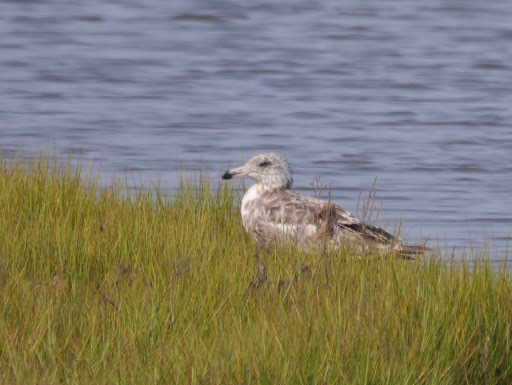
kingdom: Animalia
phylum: Chordata
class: Aves
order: Charadriiformes
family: Laridae
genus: Larus
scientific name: Larus argentatus
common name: Herring gull
